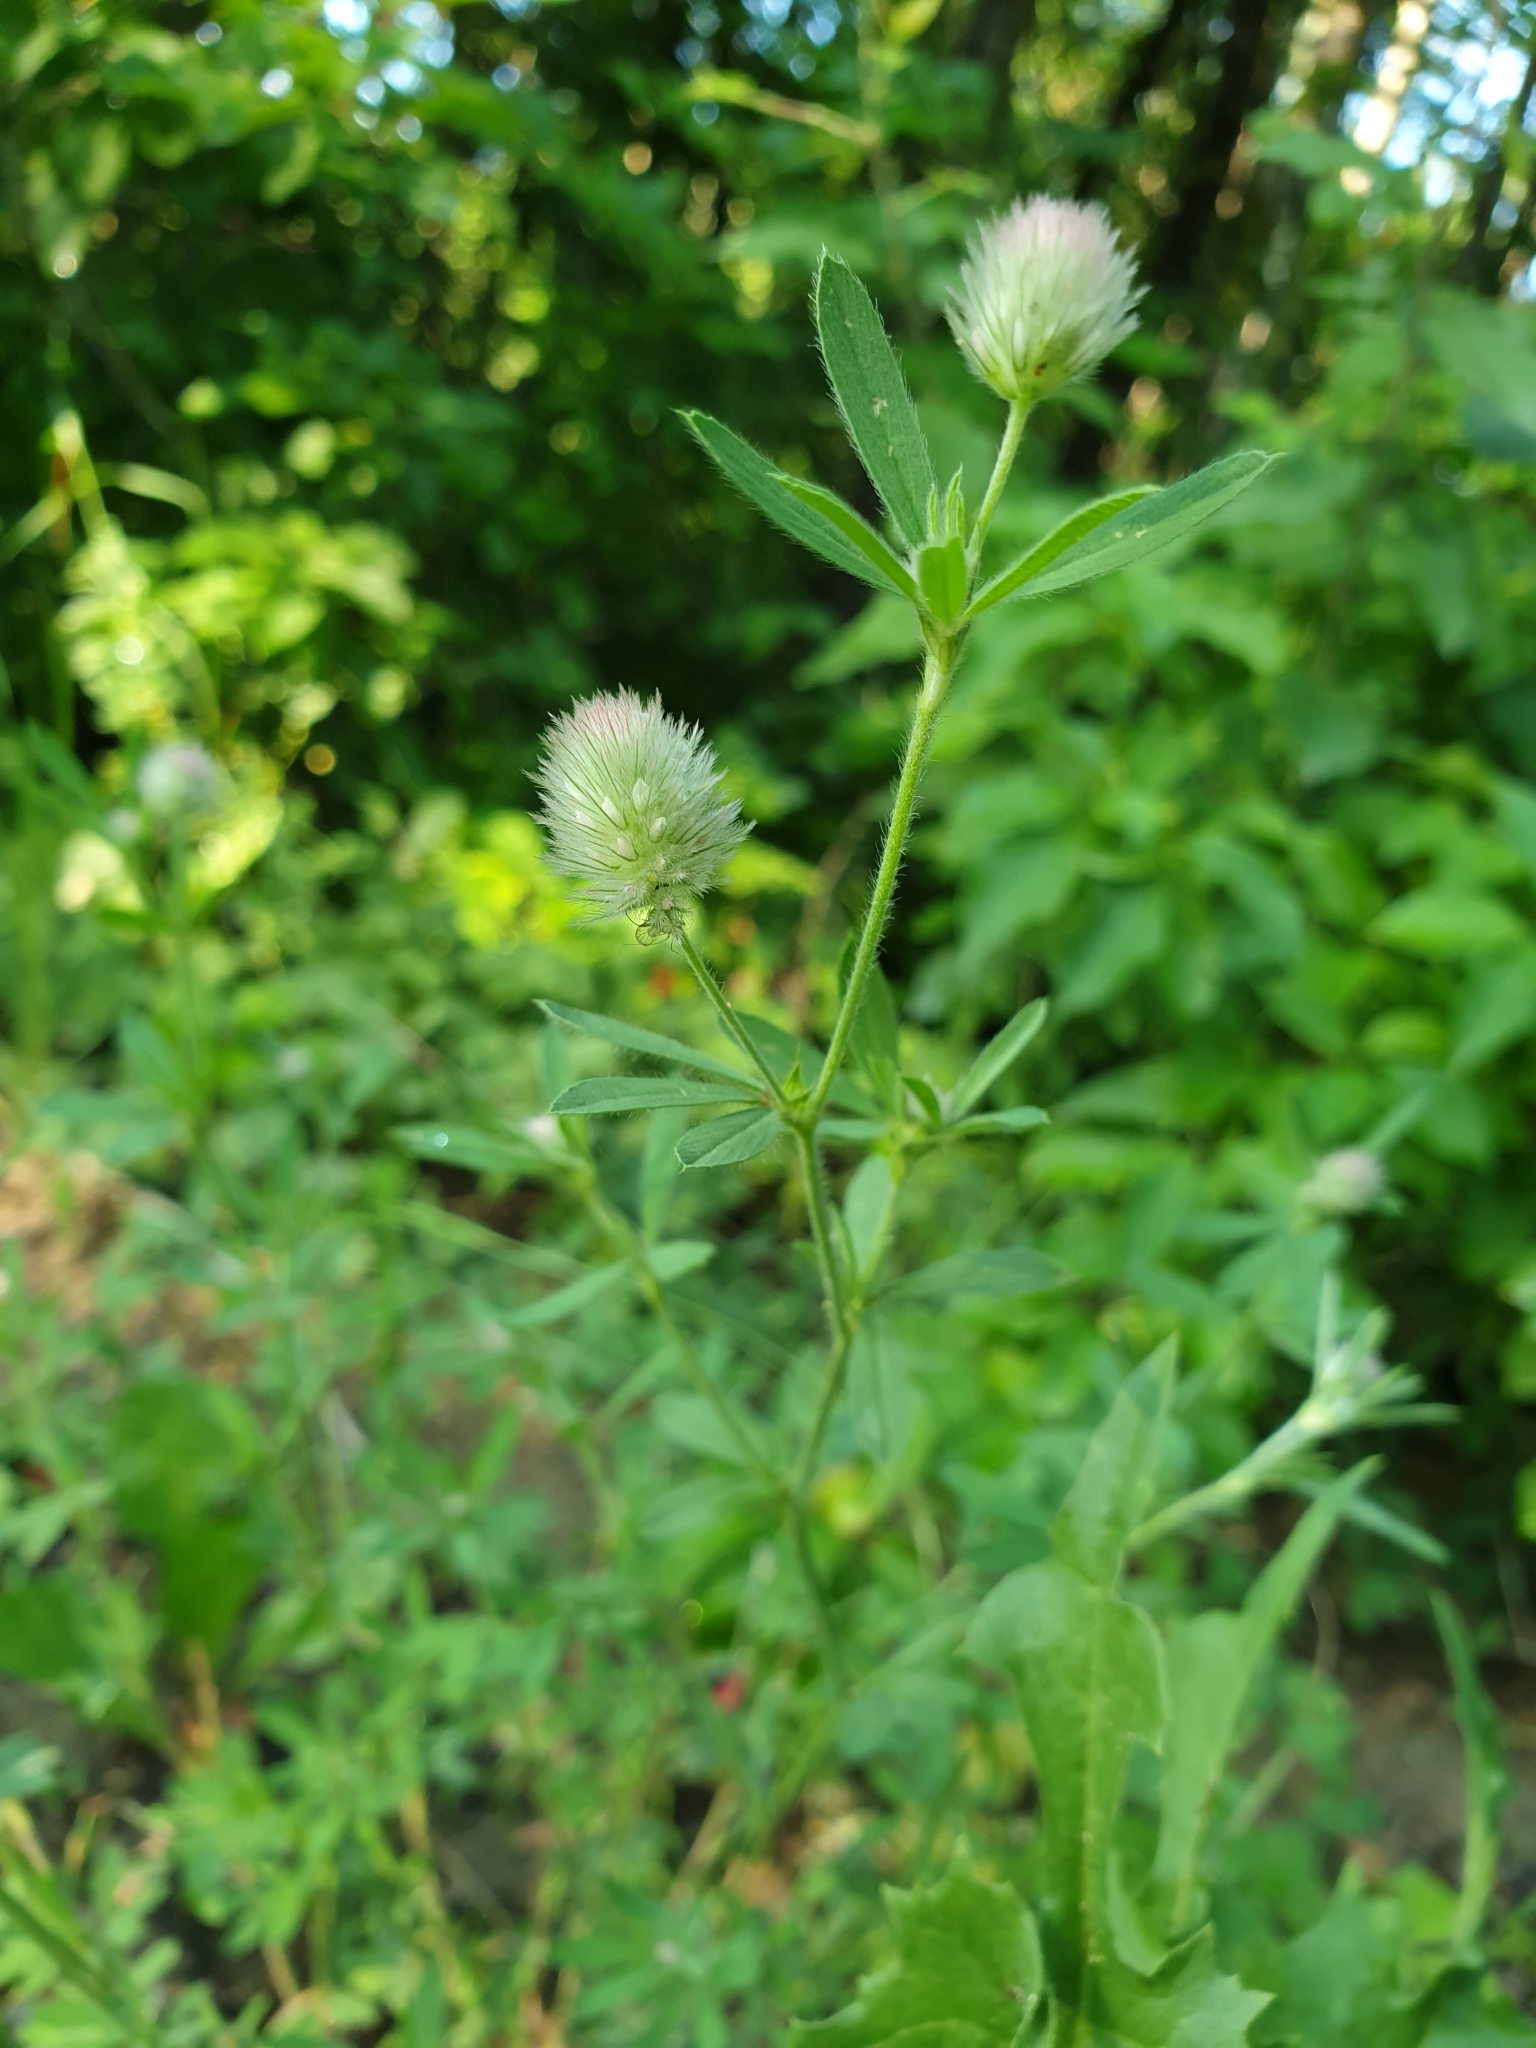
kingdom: Plantae
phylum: Tracheophyta
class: Magnoliopsida
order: Fabales
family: Fabaceae
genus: Trifolium
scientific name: Trifolium arvense
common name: Hare's-foot clover
